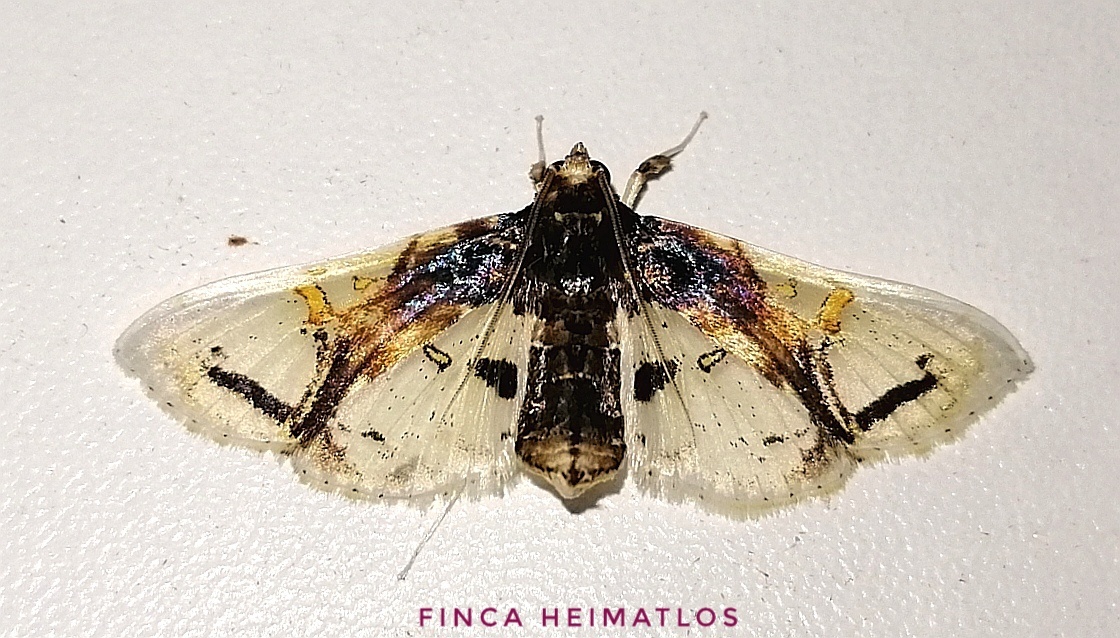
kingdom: Animalia
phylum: Arthropoda
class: Insecta
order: Lepidoptera
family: Crambidae
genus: Compacta
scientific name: Compacta nigrolinealis
